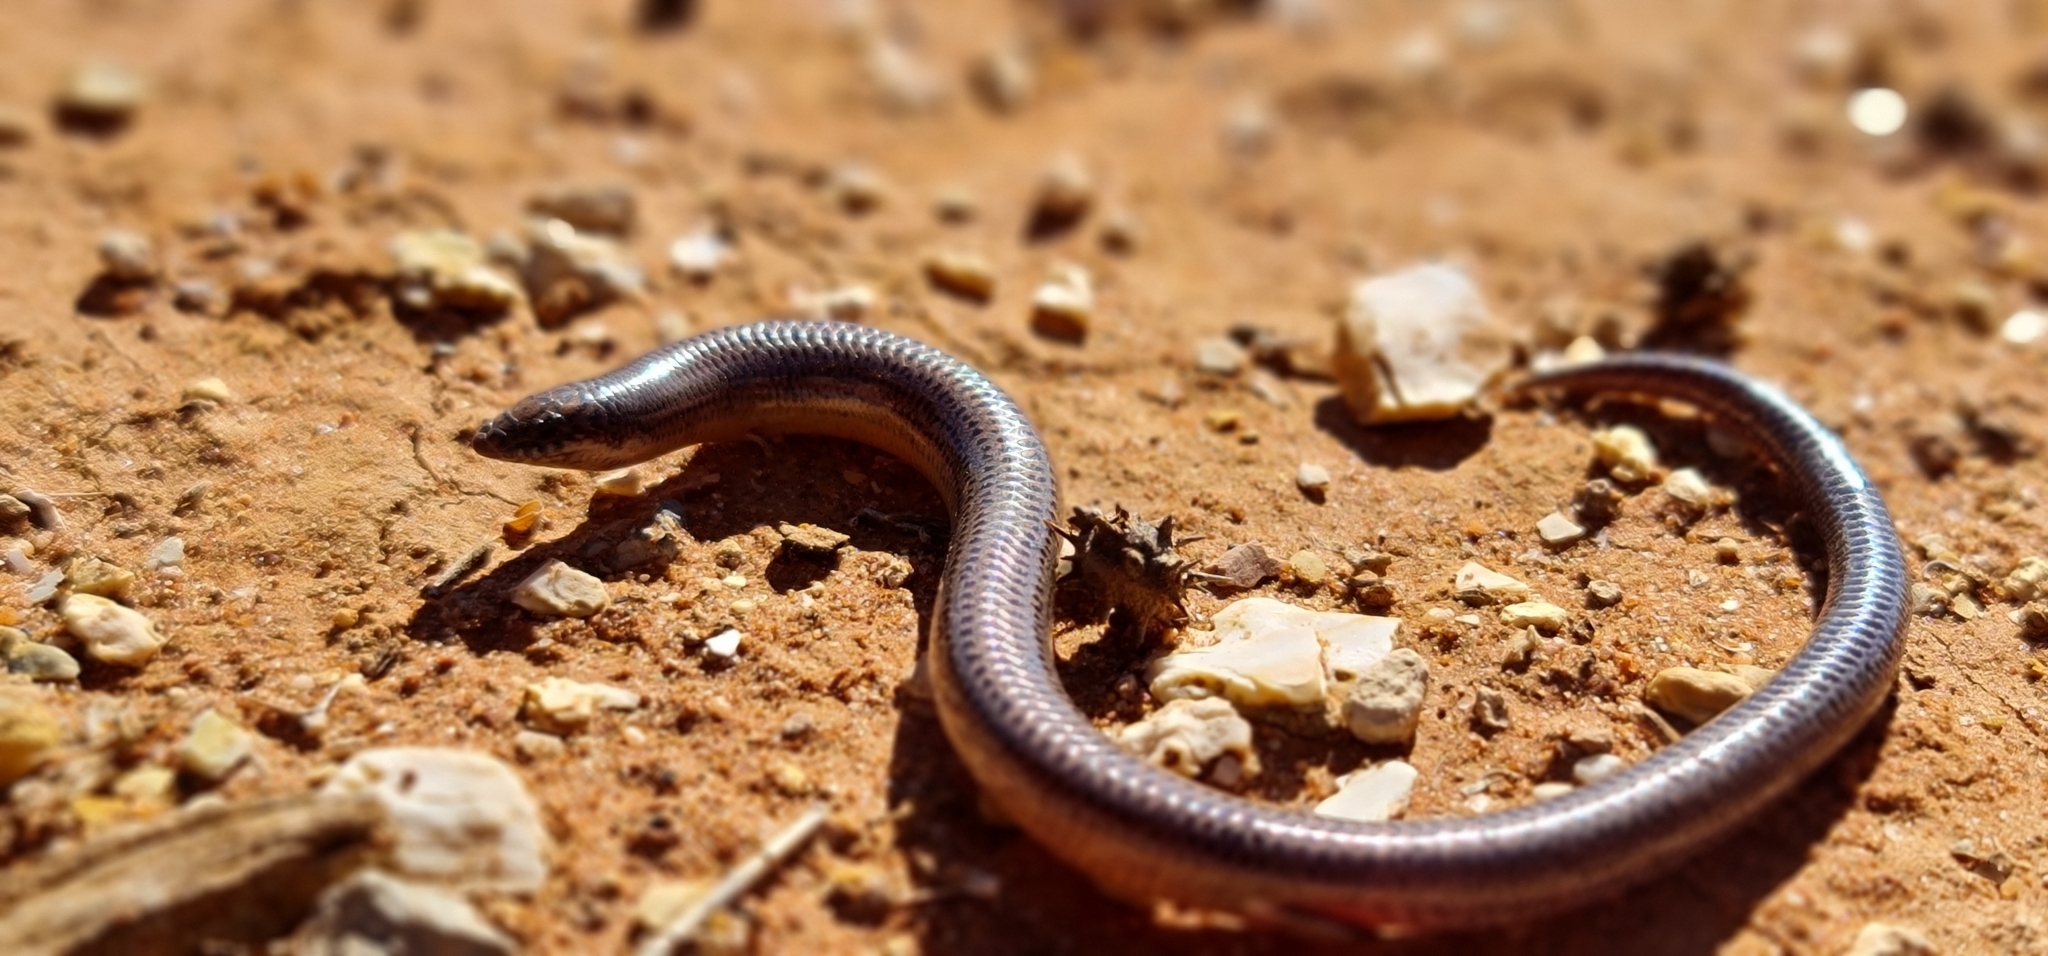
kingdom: Animalia
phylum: Chordata
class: Squamata
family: Scincidae
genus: Lerista
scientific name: Lerista punctatovittata
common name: Eastern robust slider
